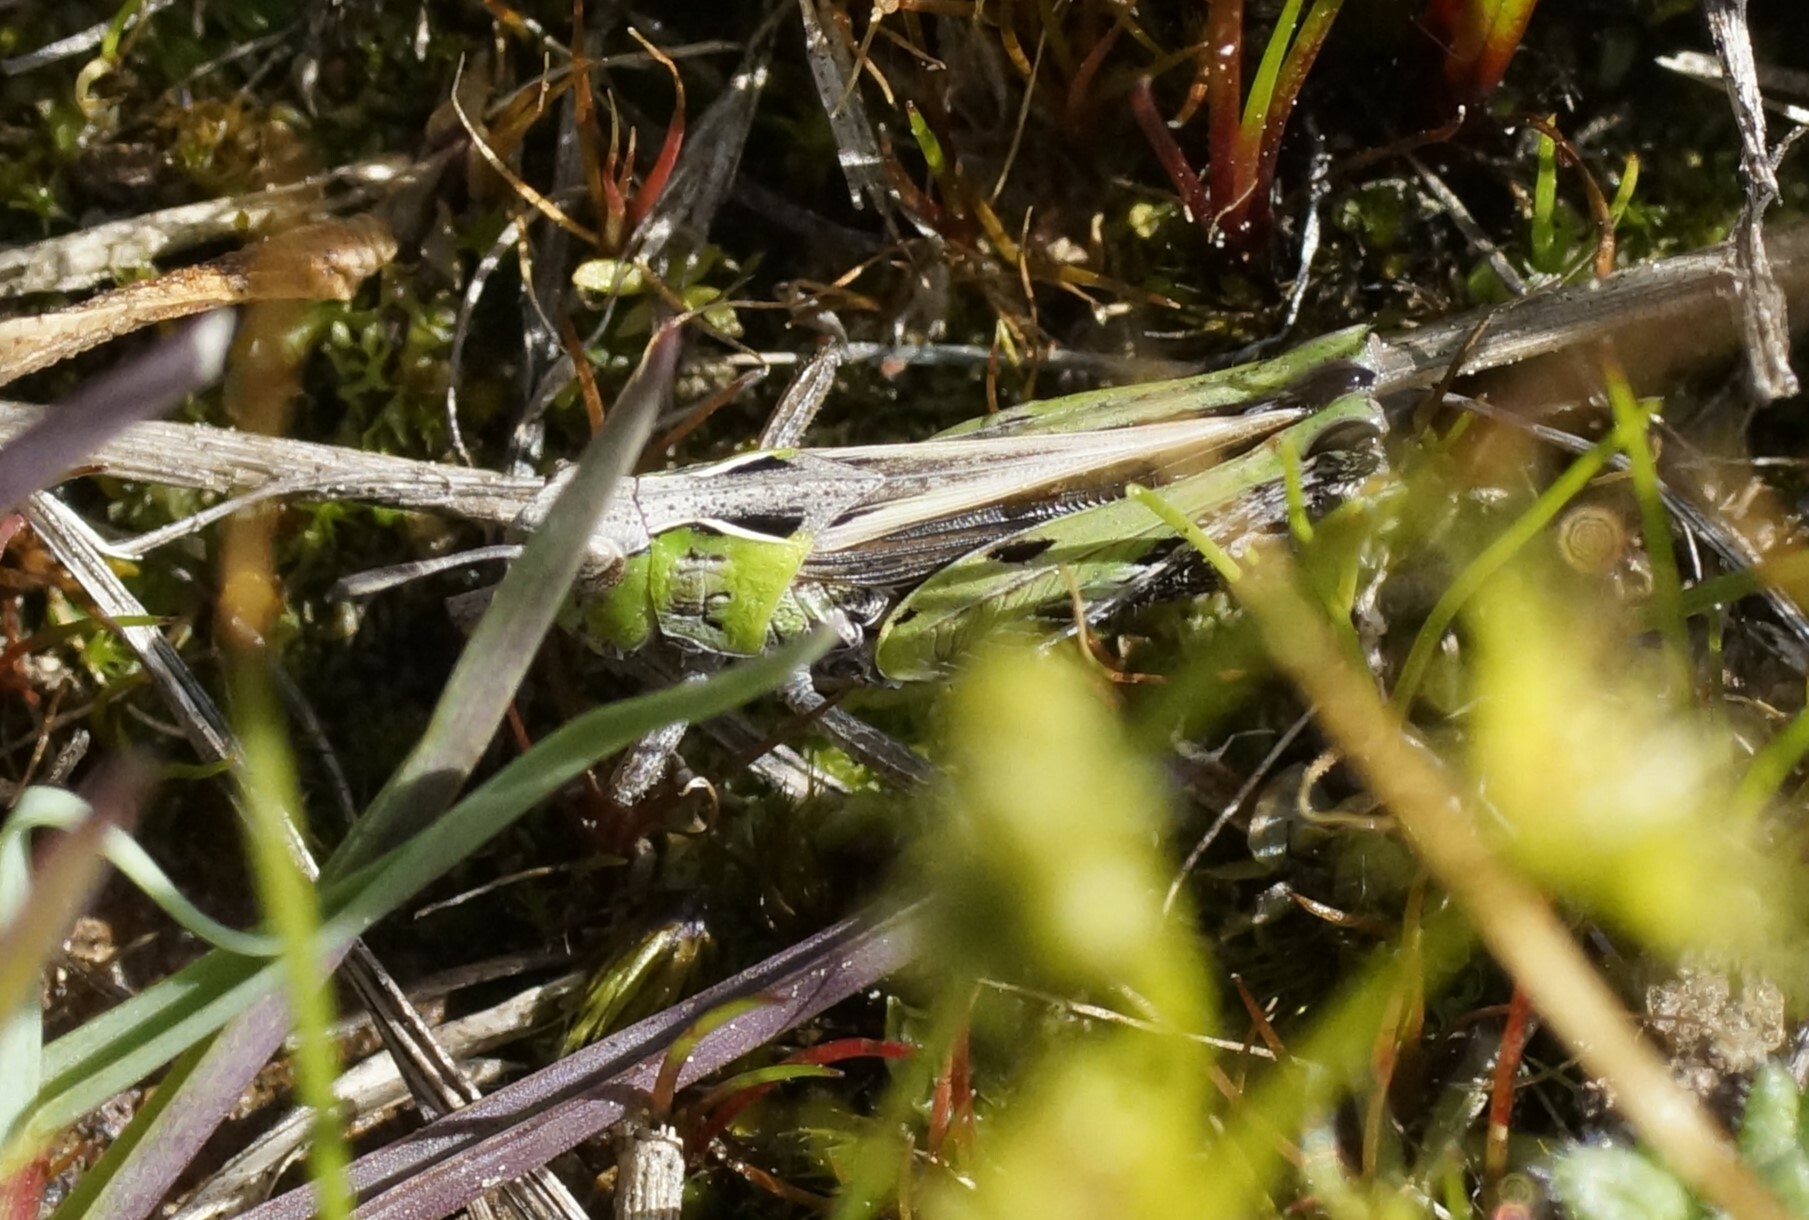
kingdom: Animalia
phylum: Arthropoda
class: Insecta
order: Orthoptera
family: Acrididae
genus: Perala
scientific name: Perala viridis
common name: Spring buzzer
